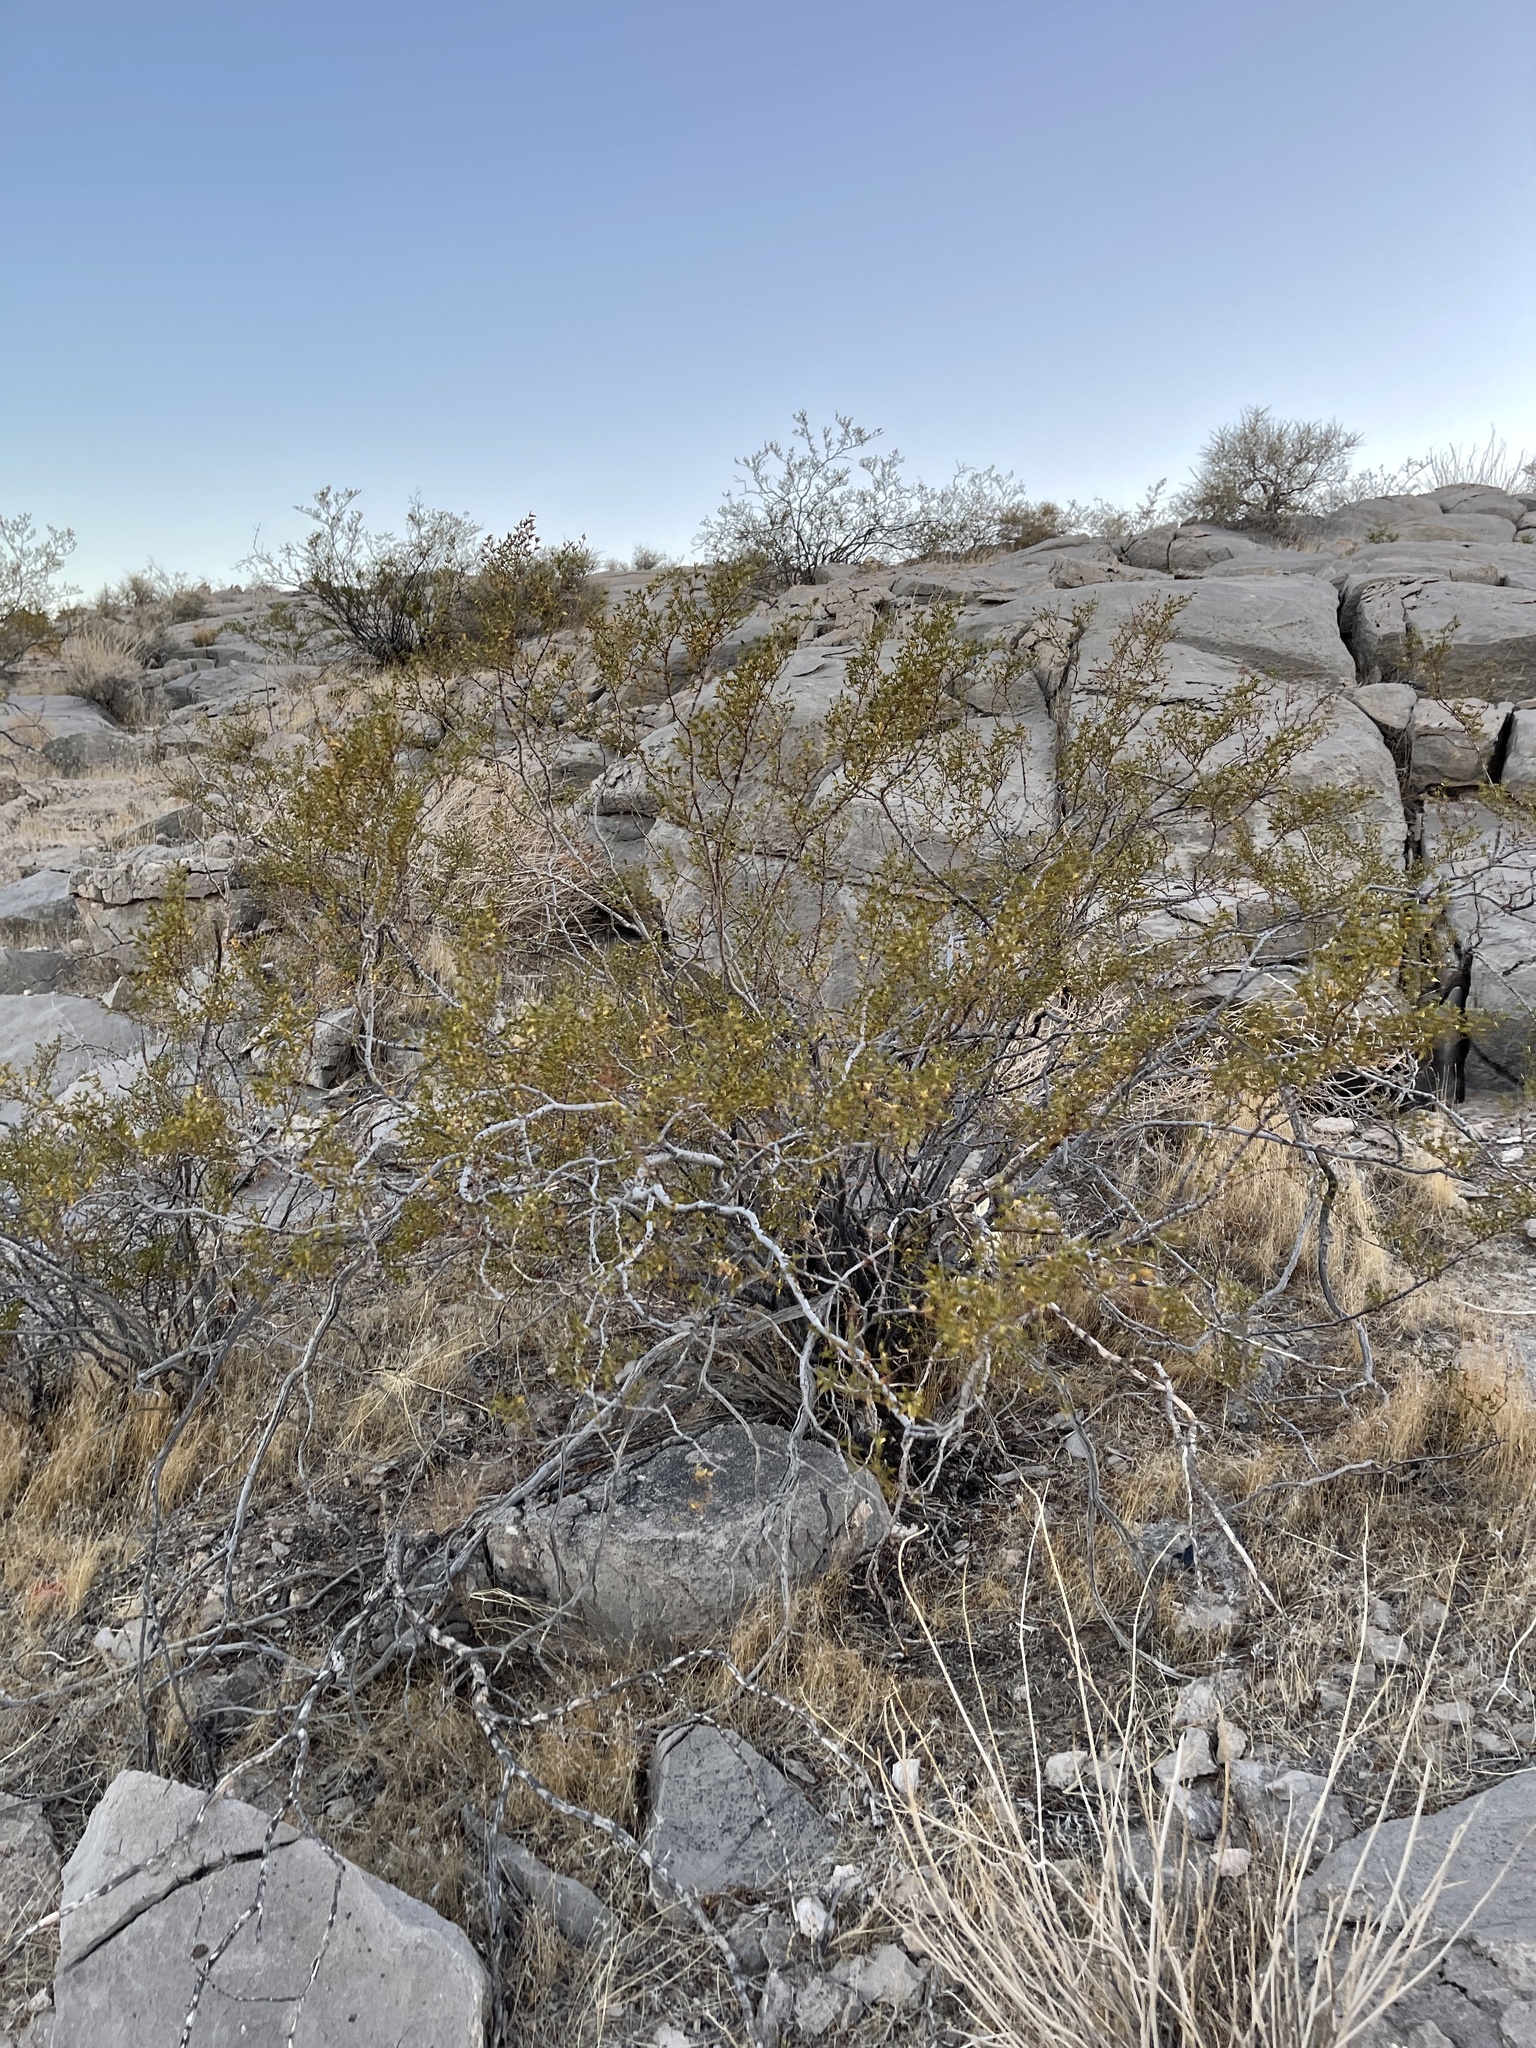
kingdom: Plantae
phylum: Tracheophyta
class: Magnoliopsida
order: Zygophyllales
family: Zygophyllaceae
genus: Larrea
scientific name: Larrea tridentata
